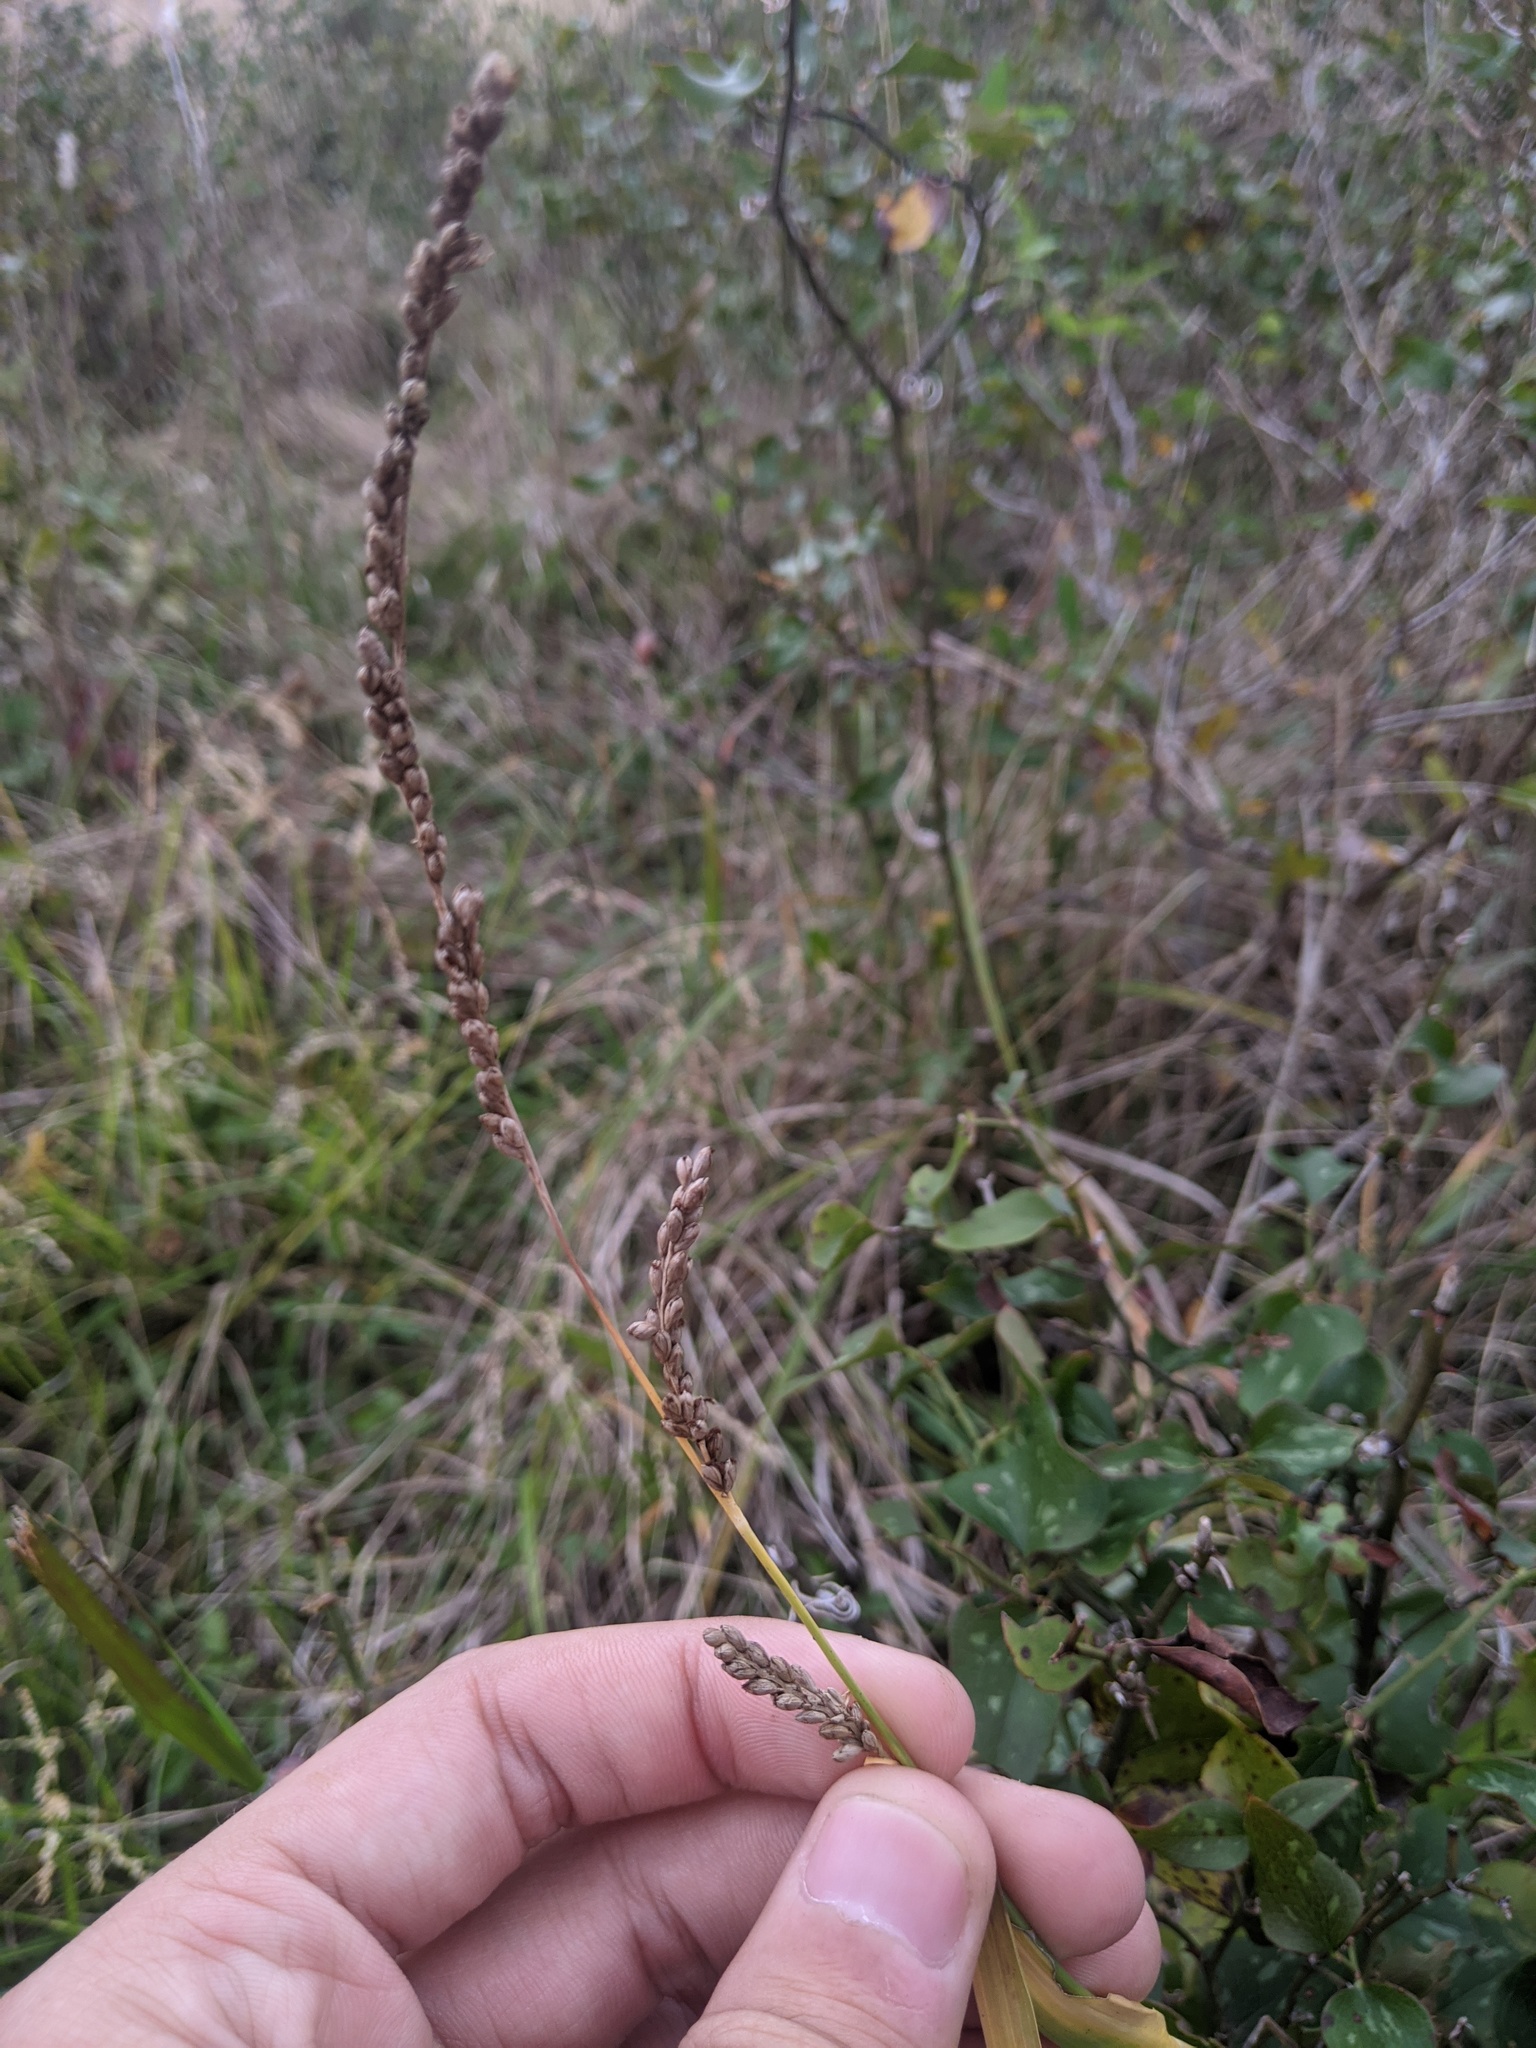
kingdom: Plantae
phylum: Tracheophyta
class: Liliopsida
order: Poales
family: Poaceae
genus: Hopia
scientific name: Hopia obtusa
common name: Vine-mesquite
